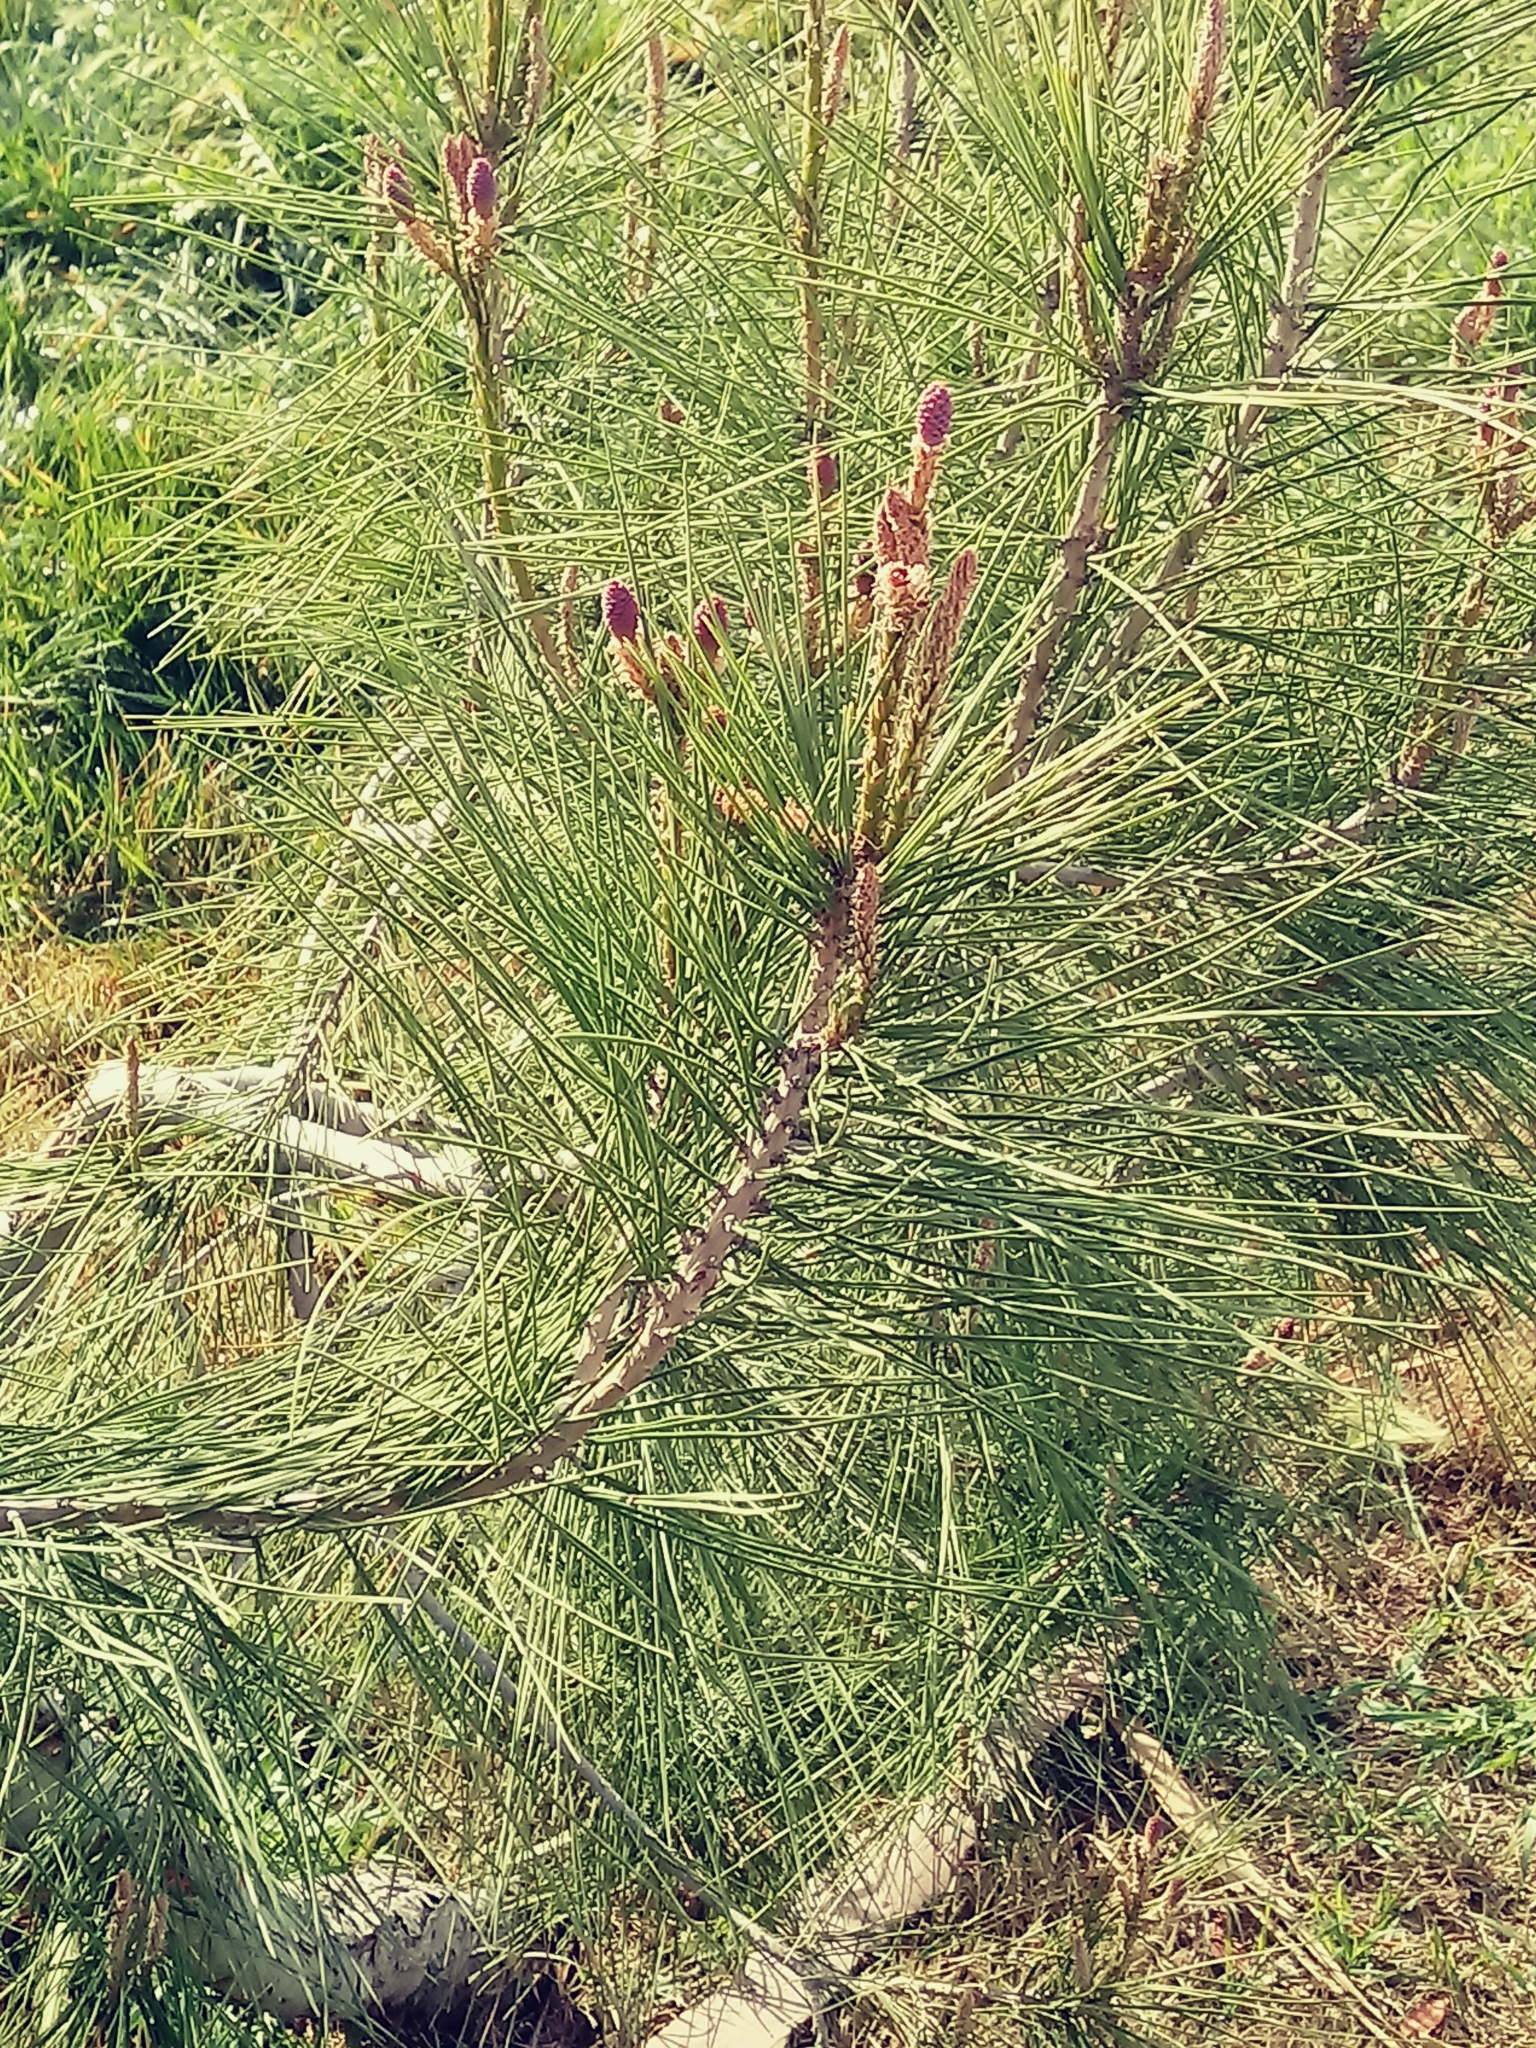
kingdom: Plantae
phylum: Tracheophyta
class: Pinopsida
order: Pinales
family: Pinaceae
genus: Pinus
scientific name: Pinus radiata
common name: Monterey pine
